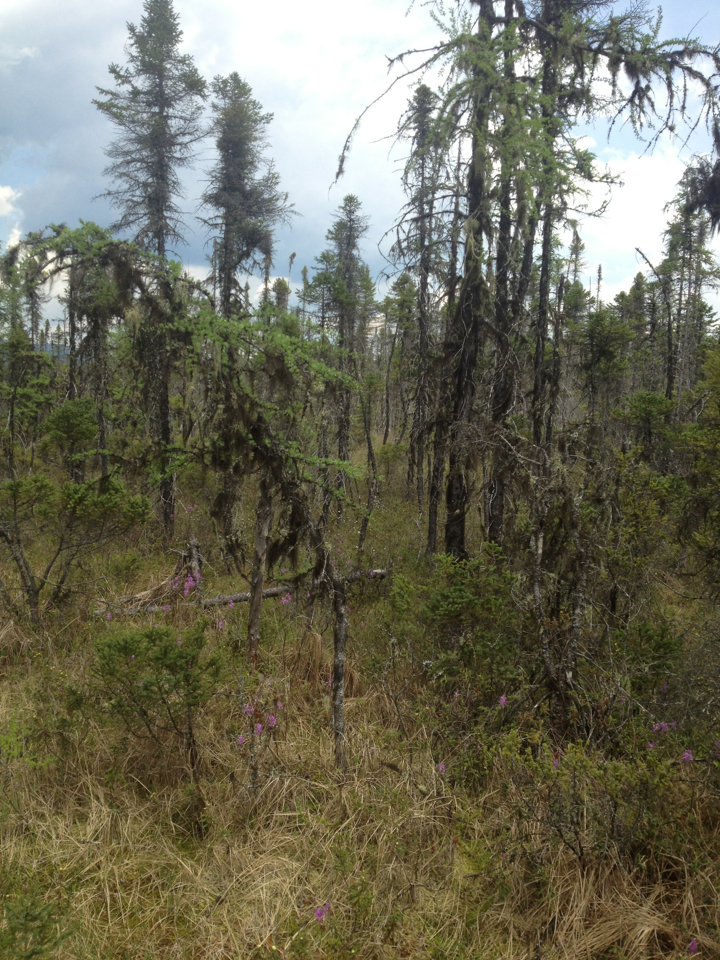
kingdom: Plantae
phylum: Tracheophyta
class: Pinopsida
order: Pinales
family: Pinaceae
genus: Picea
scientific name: Picea mariana
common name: Black spruce
